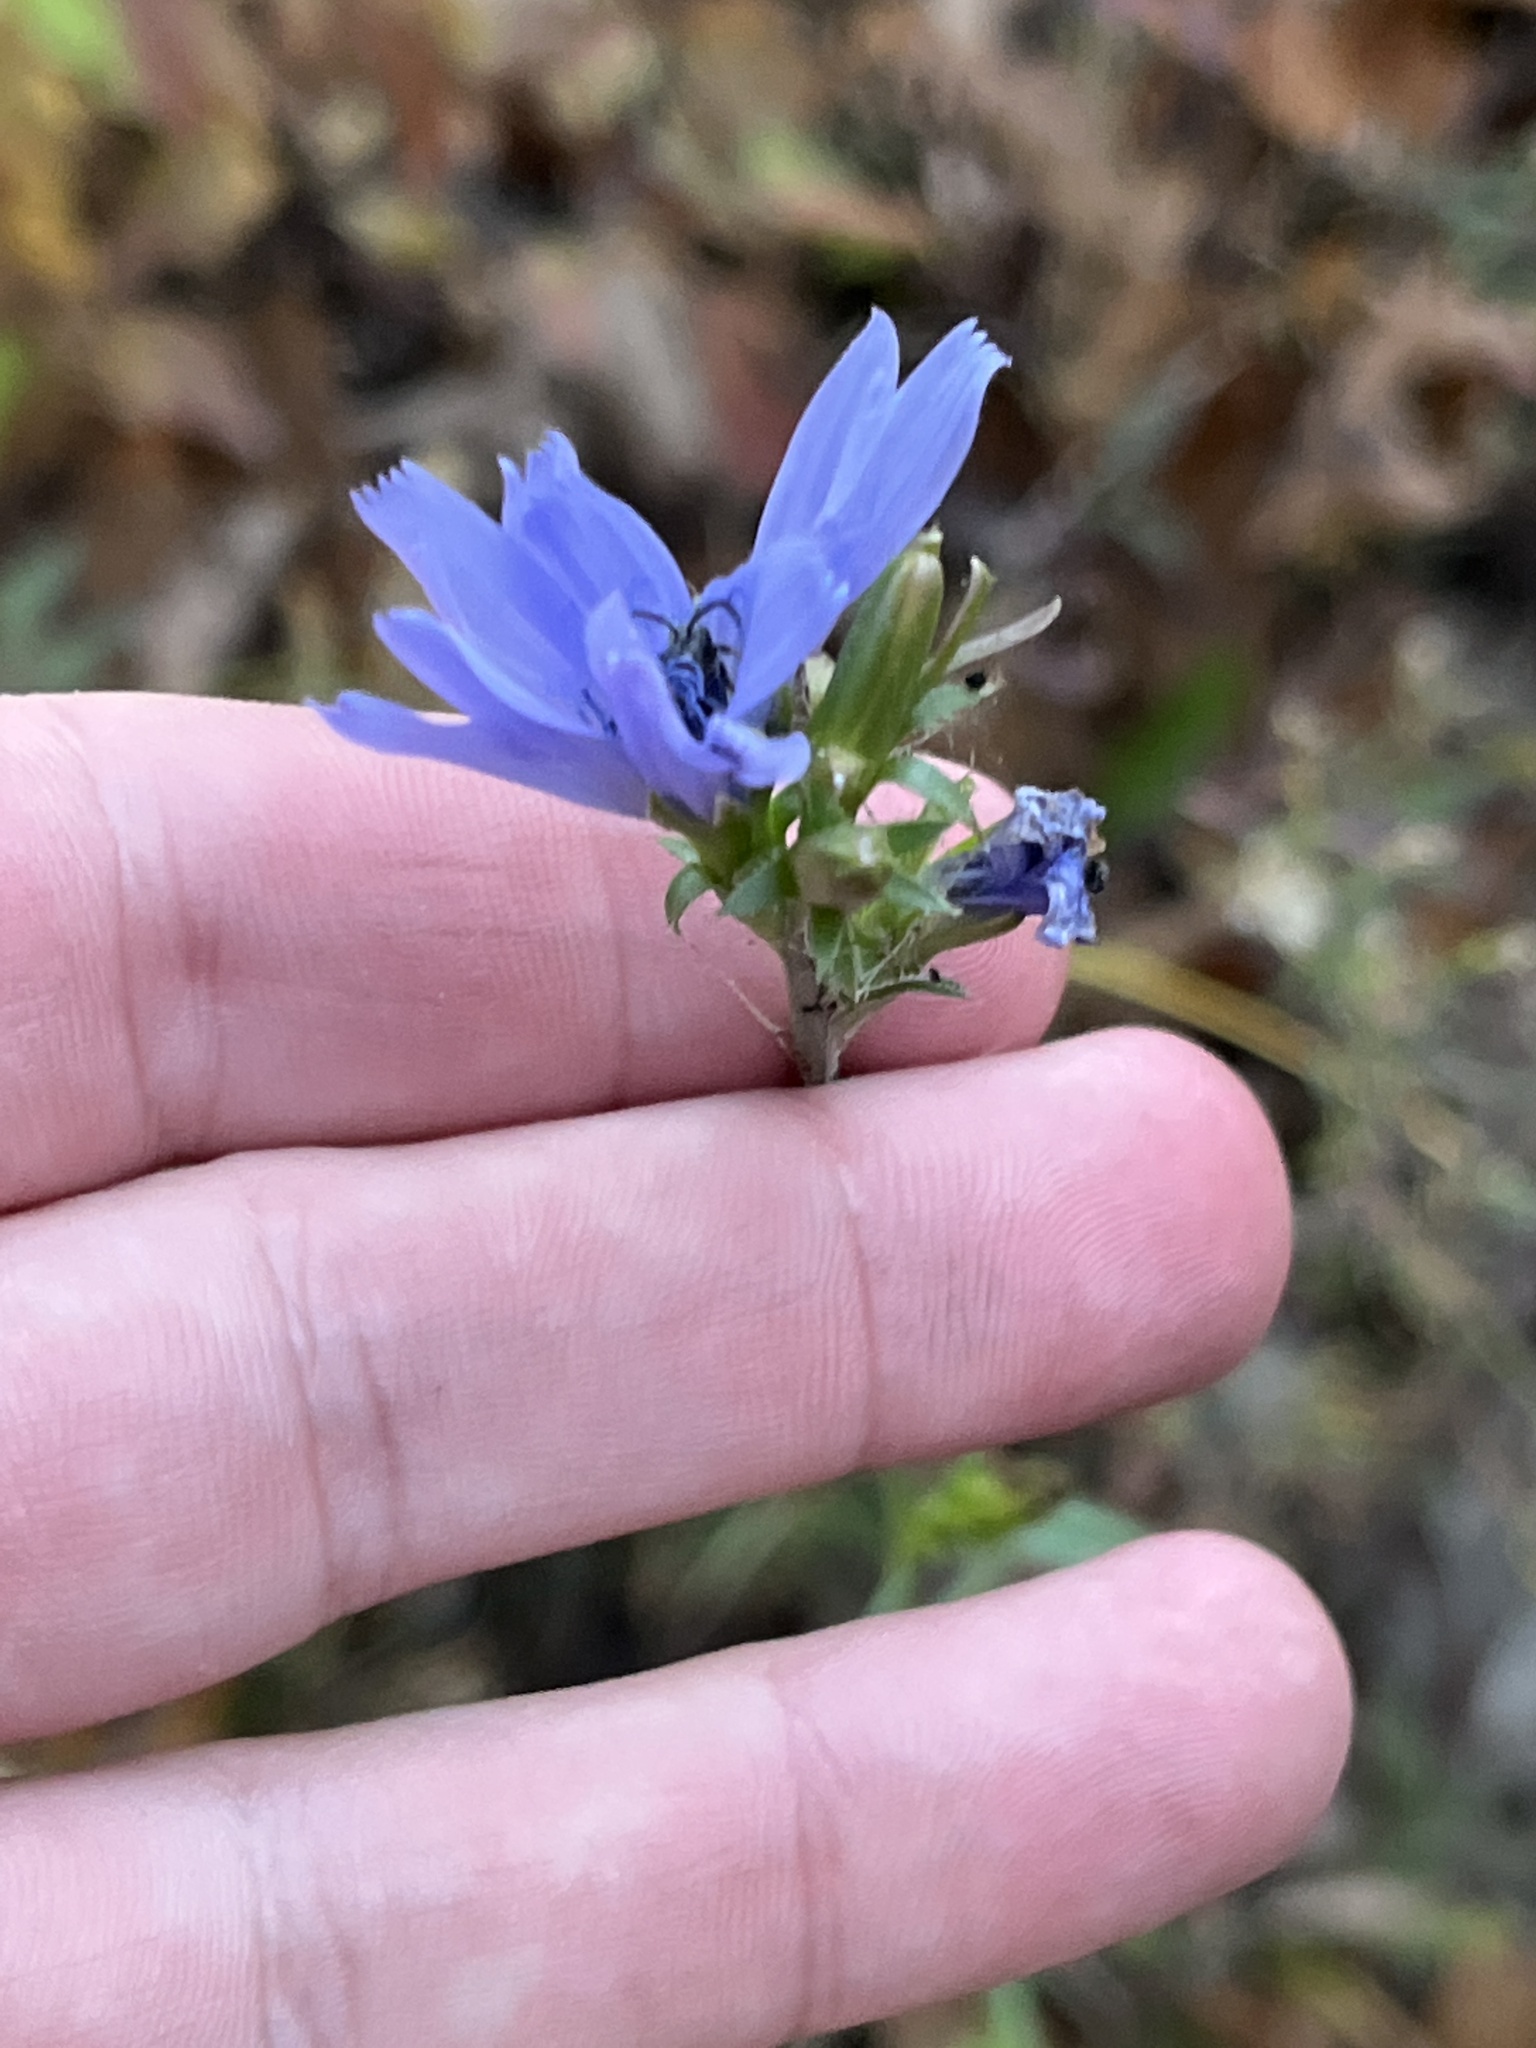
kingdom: Plantae
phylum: Tracheophyta
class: Magnoliopsida
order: Asterales
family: Asteraceae
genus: Cichorium
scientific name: Cichorium intybus
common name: Chicory
